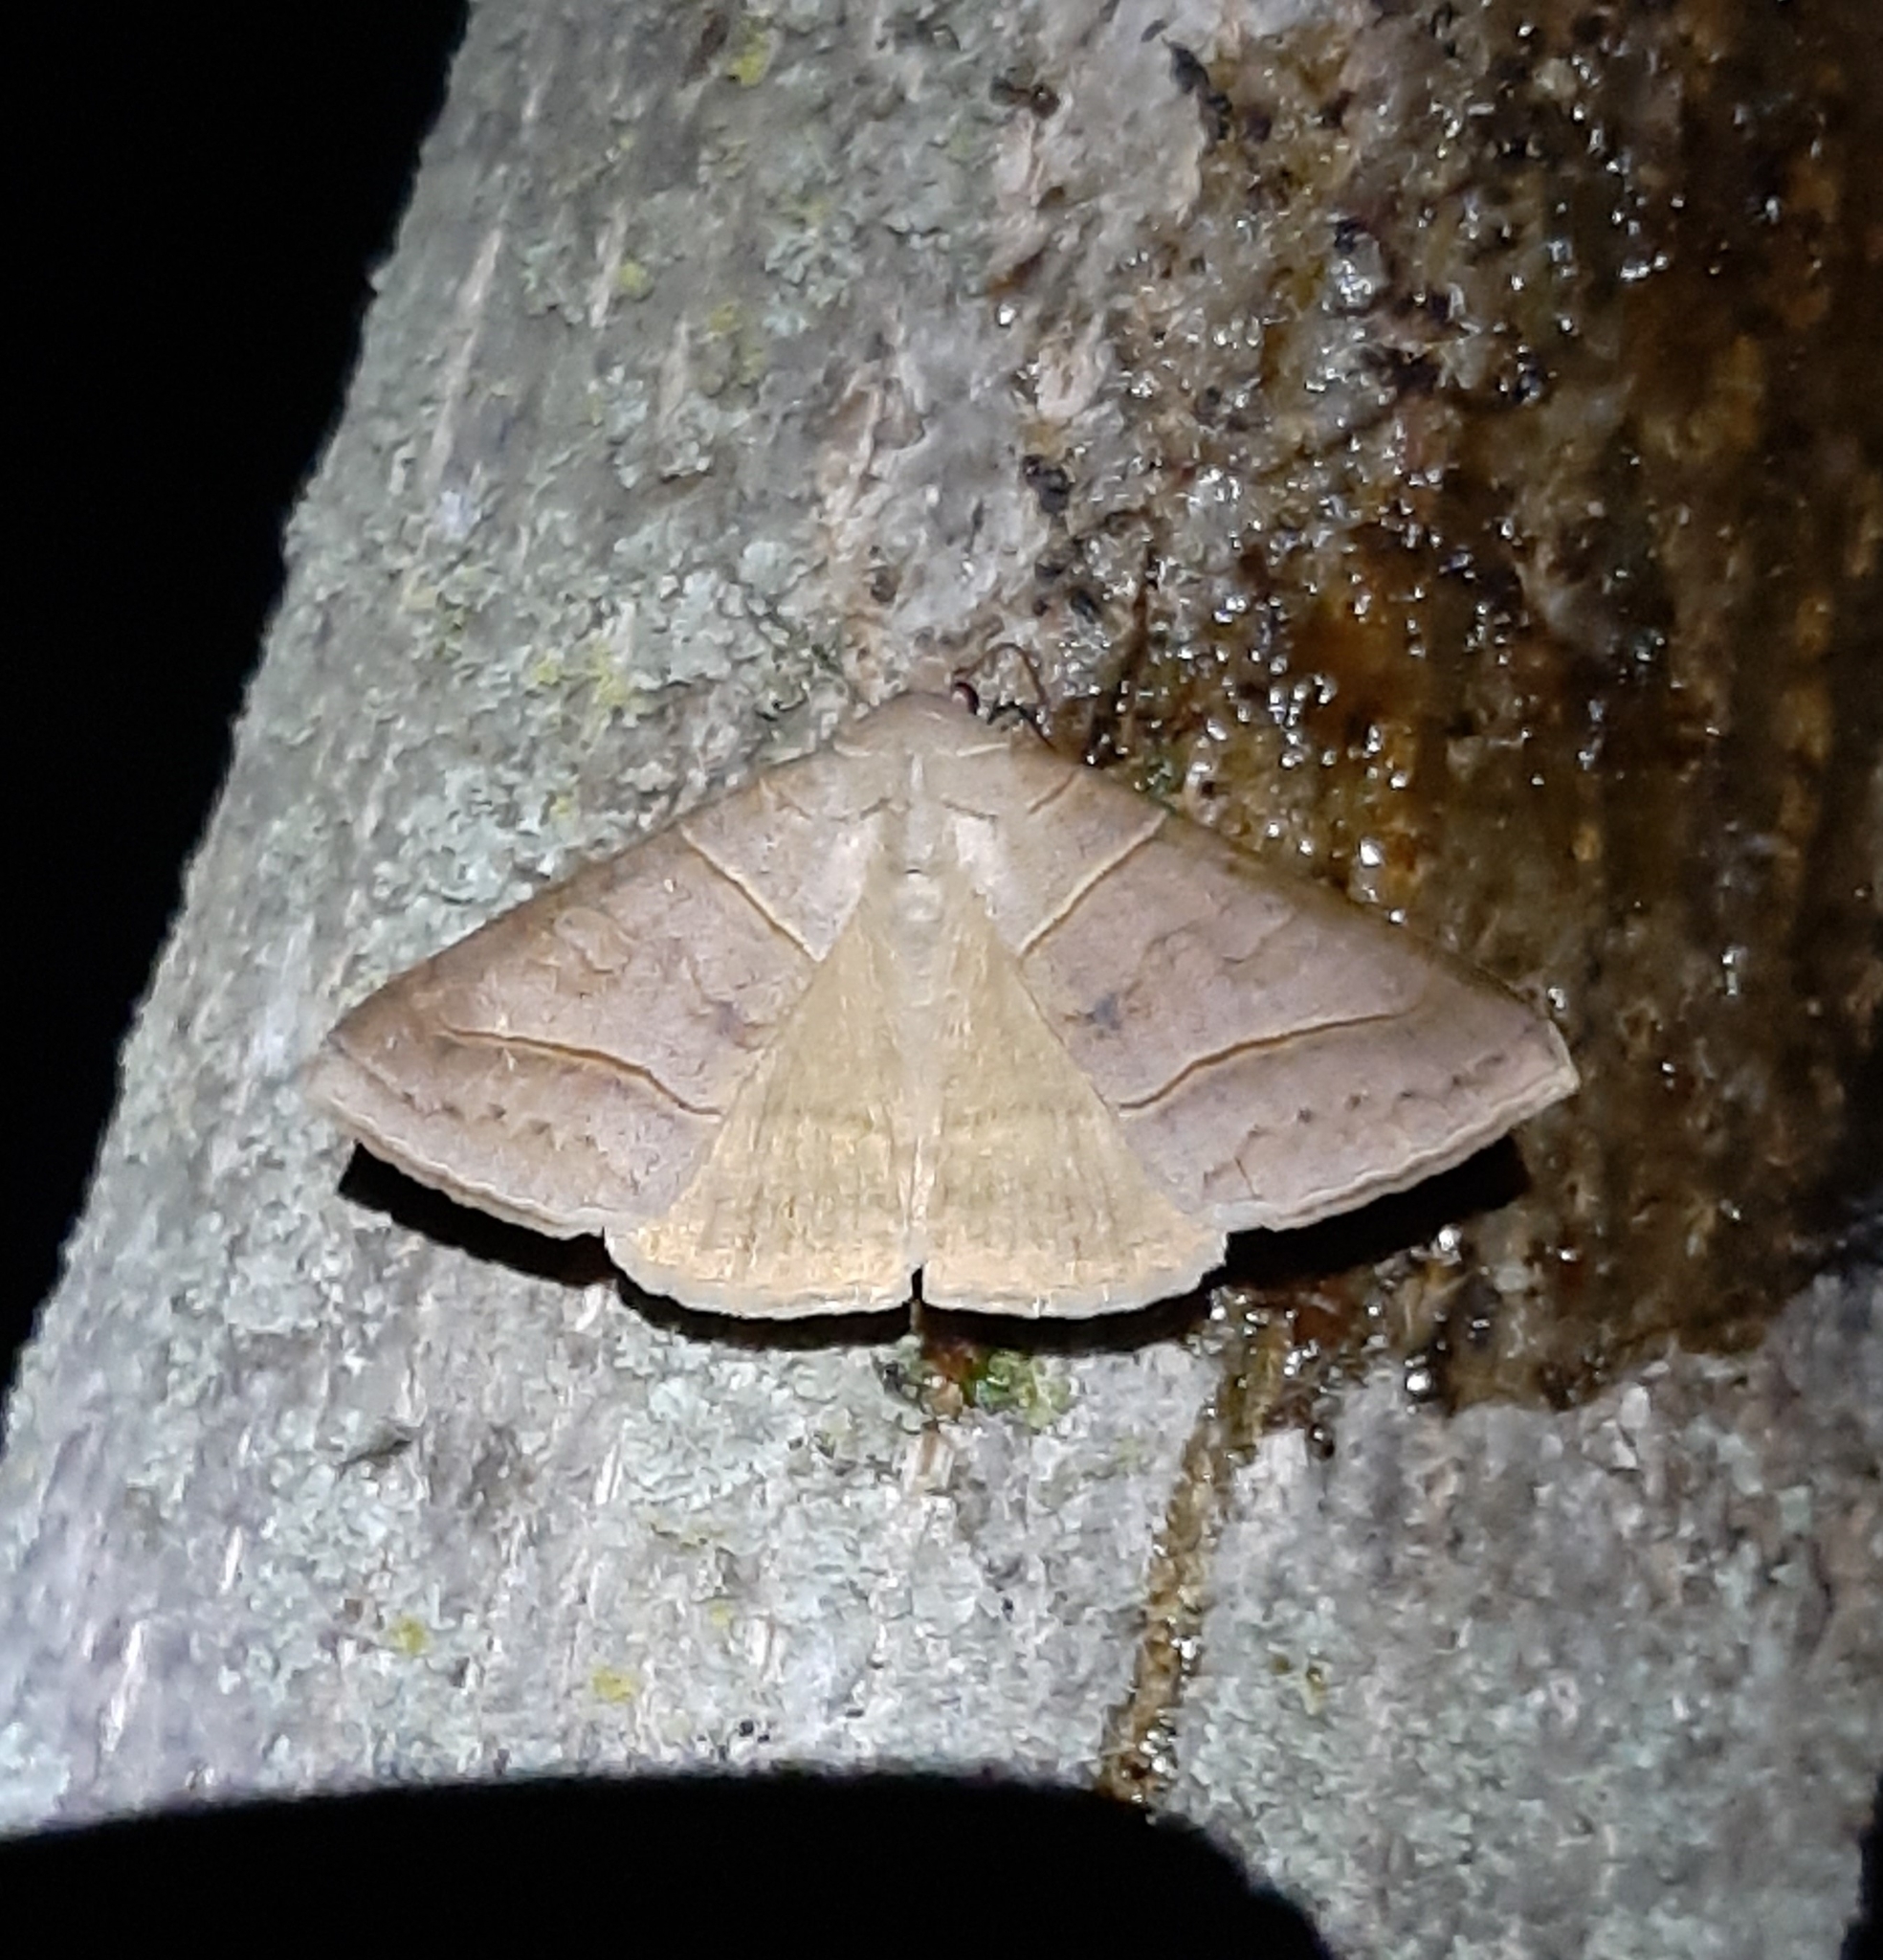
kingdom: Animalia
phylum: Arthropoda
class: Insecta
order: Lepidoptera
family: Erebidae
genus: Mocis
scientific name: Mocis texana
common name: Texas mocis moth
